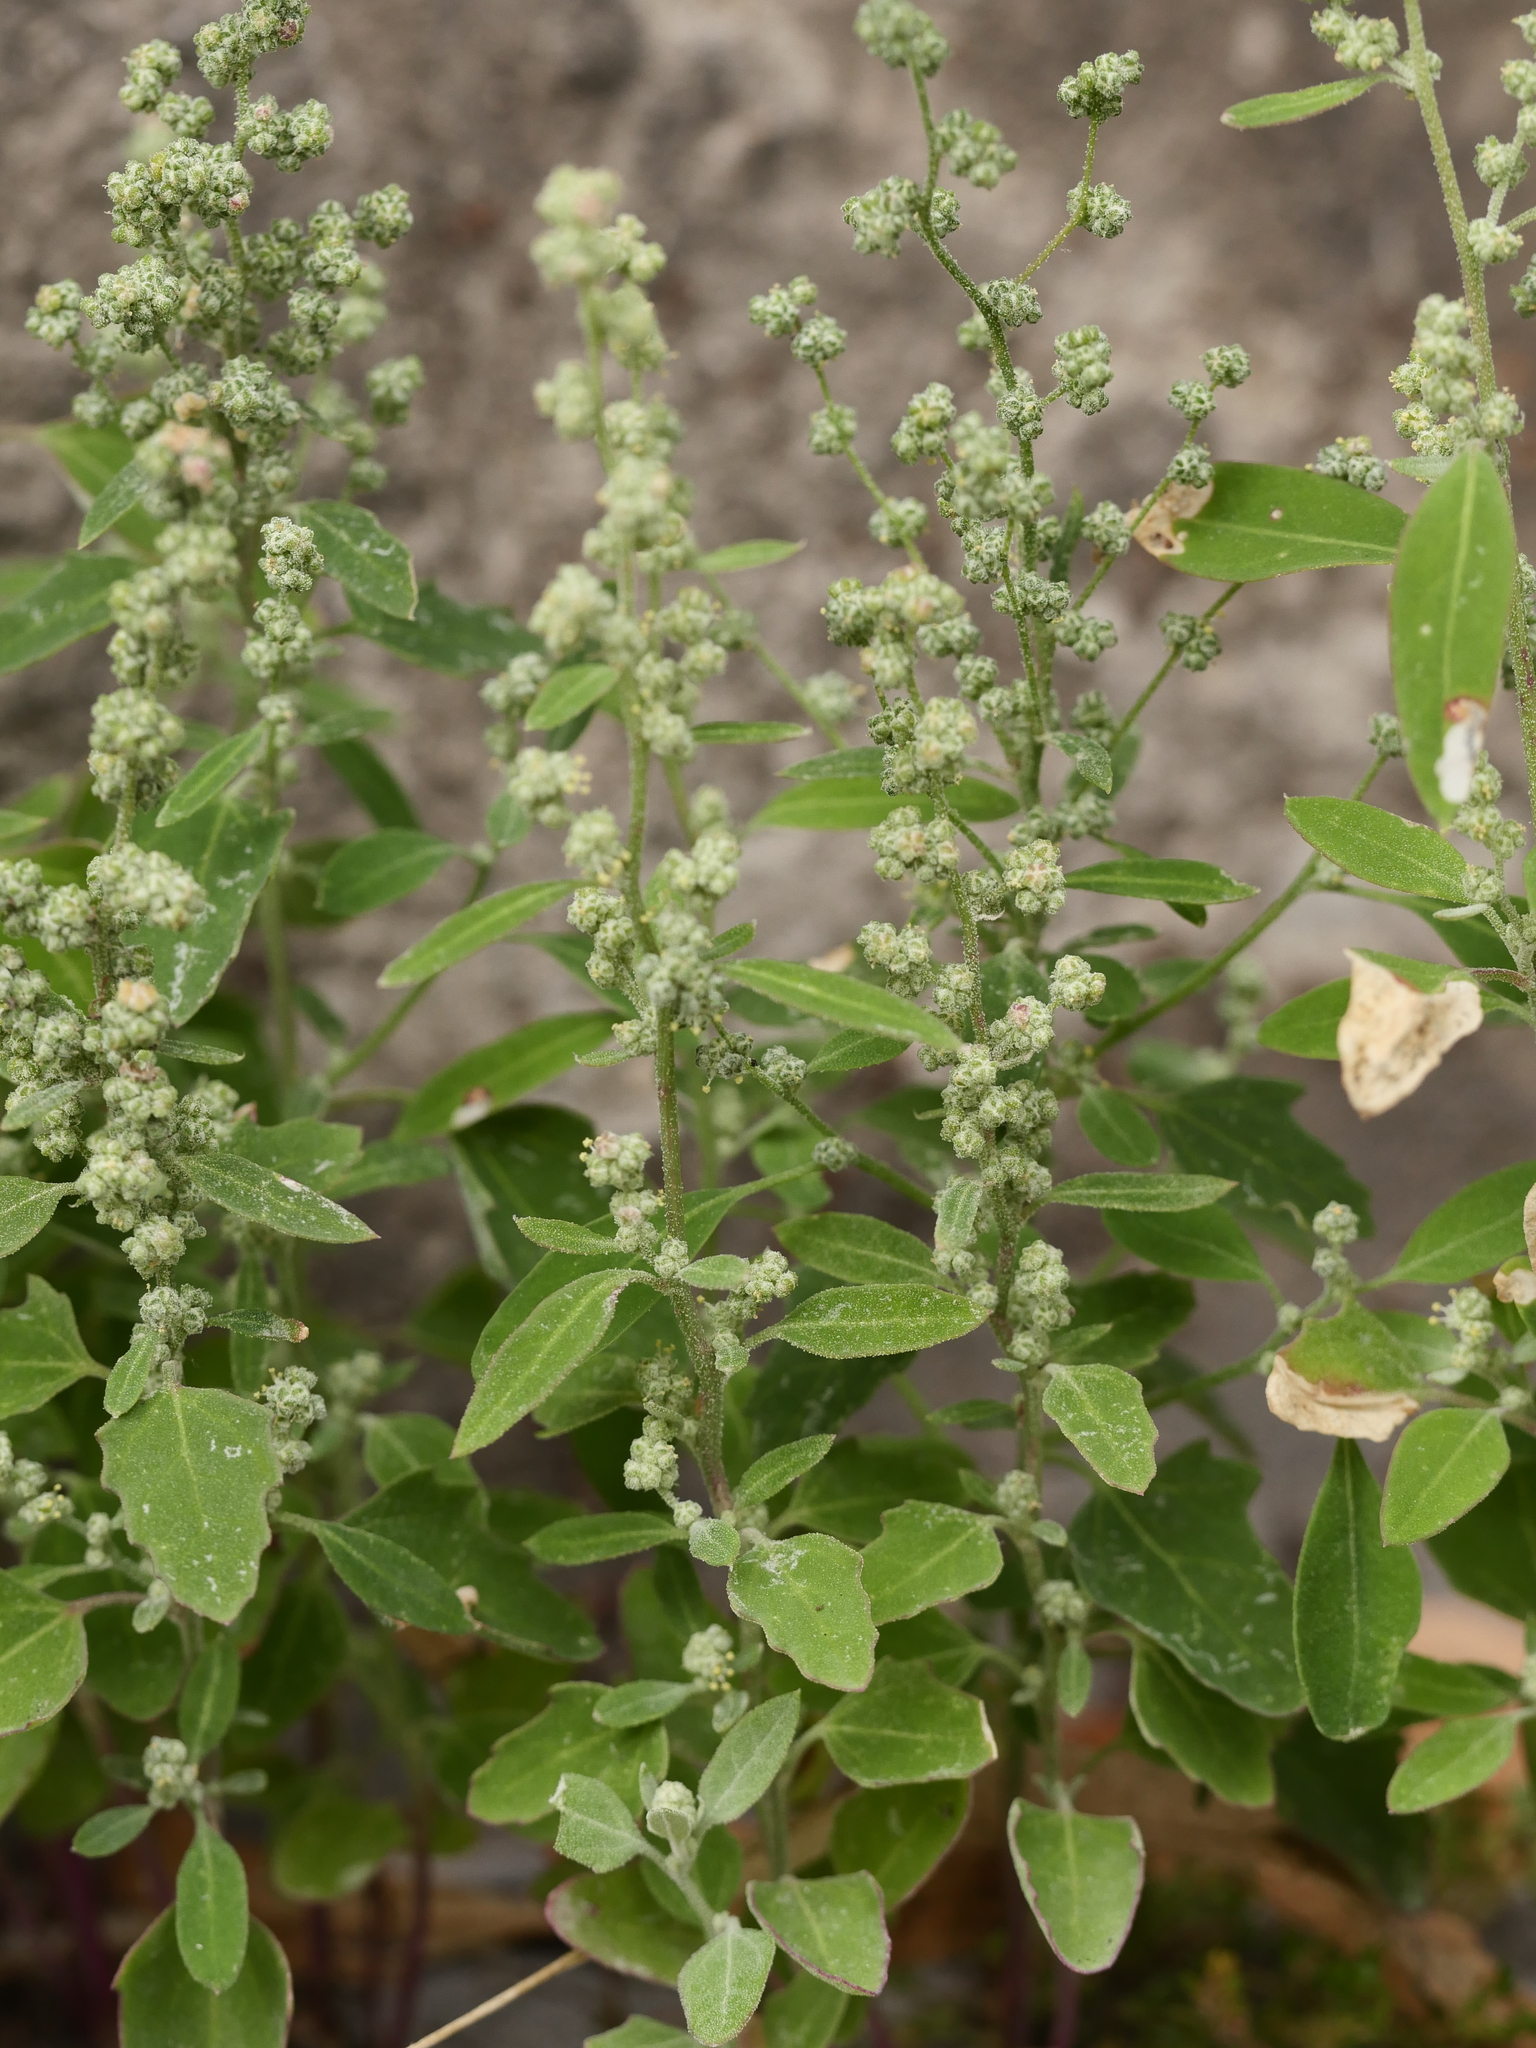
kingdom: Plantae
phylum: Tracheophyta
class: Magnoliopsida
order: Caryophyllales
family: Amaranthaceae
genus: Chenopodium
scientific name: Chenopodium album
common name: Fat-hen
